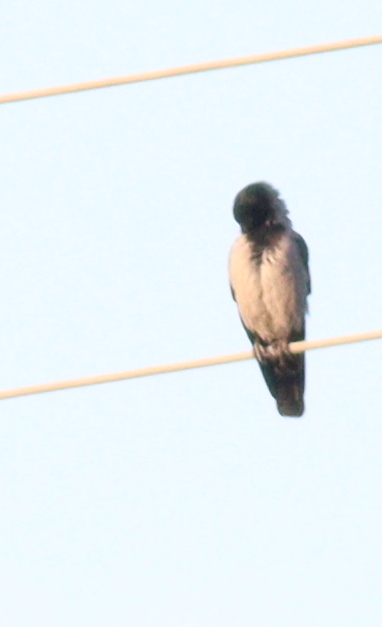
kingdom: Animalia
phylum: Chordata
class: Aves
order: Passeriformes
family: Corvidae
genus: Corvus
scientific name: Corvus cornix
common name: Hooded crow
